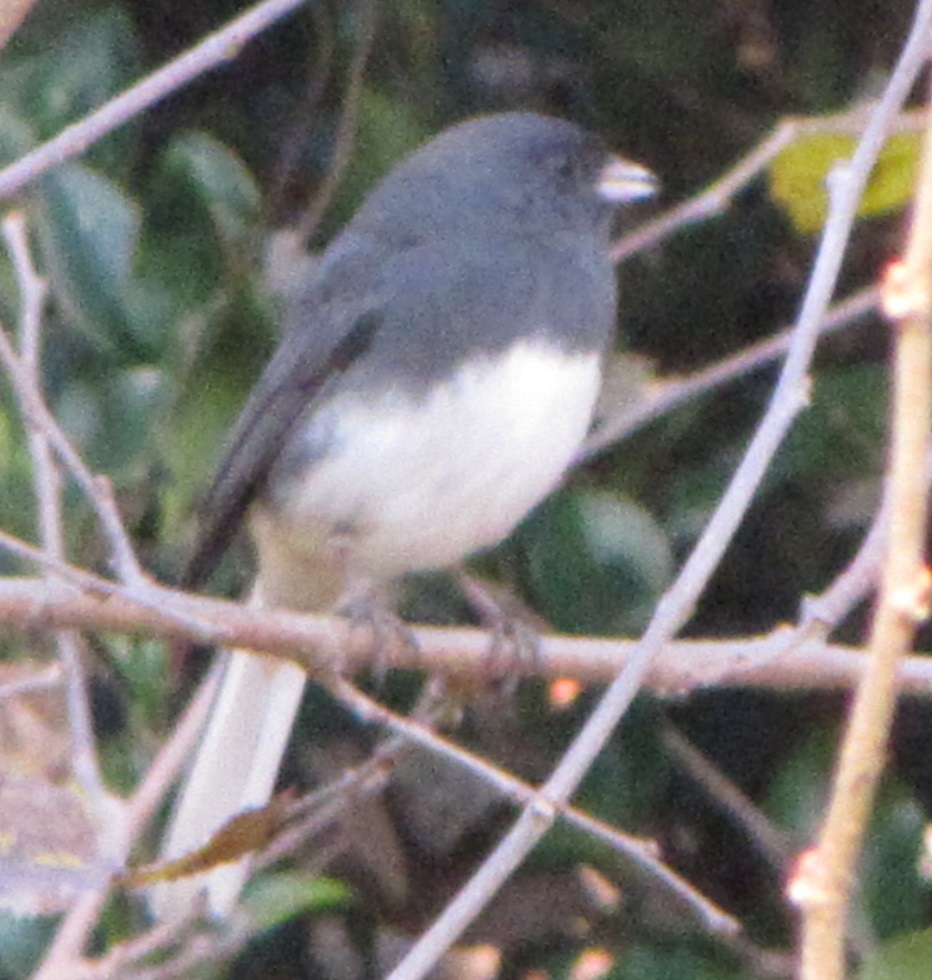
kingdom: Animalia
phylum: Chordata
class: Aves
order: Passeriformes
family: Passerellidae
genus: Junco
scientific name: Junco hyemalis
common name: Dark-eyed junco
